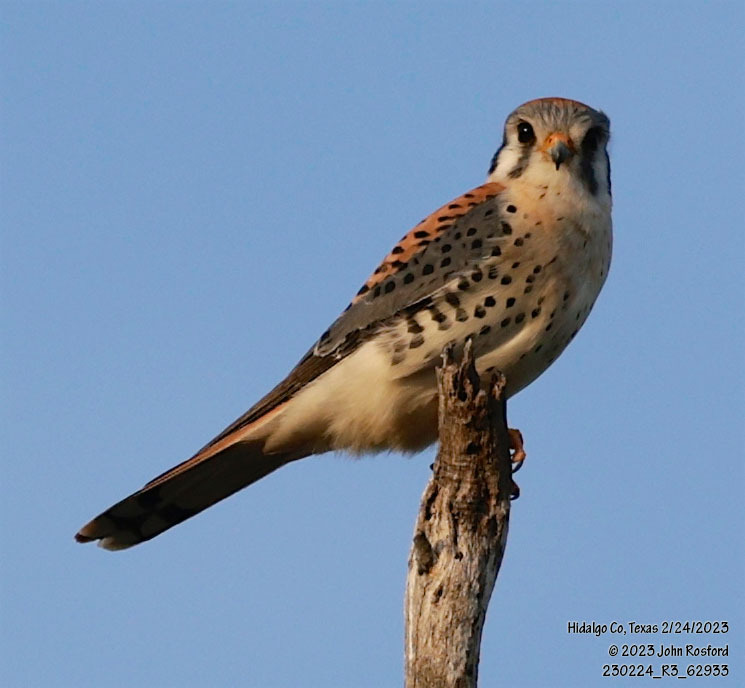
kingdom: Animalia
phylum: Chordata
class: Aves
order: Falconiformes
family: Falconidae
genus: Falco
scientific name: Falco sparverius
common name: American kestrel
